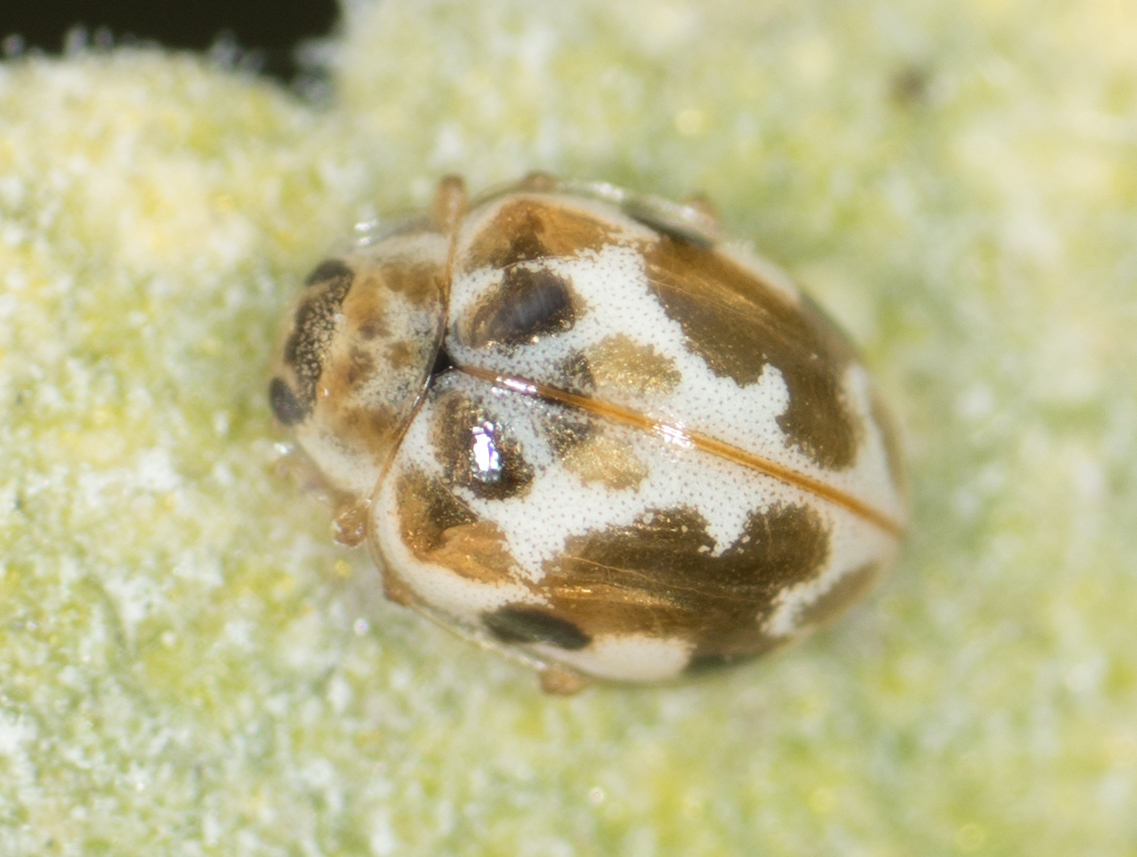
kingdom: Animalia
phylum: Arthropoda
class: Insecta
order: Coleoptera
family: Coccinellidae
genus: Psyllobora
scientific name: Psyllobora vigintimaculata
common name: Ladybird beetle
